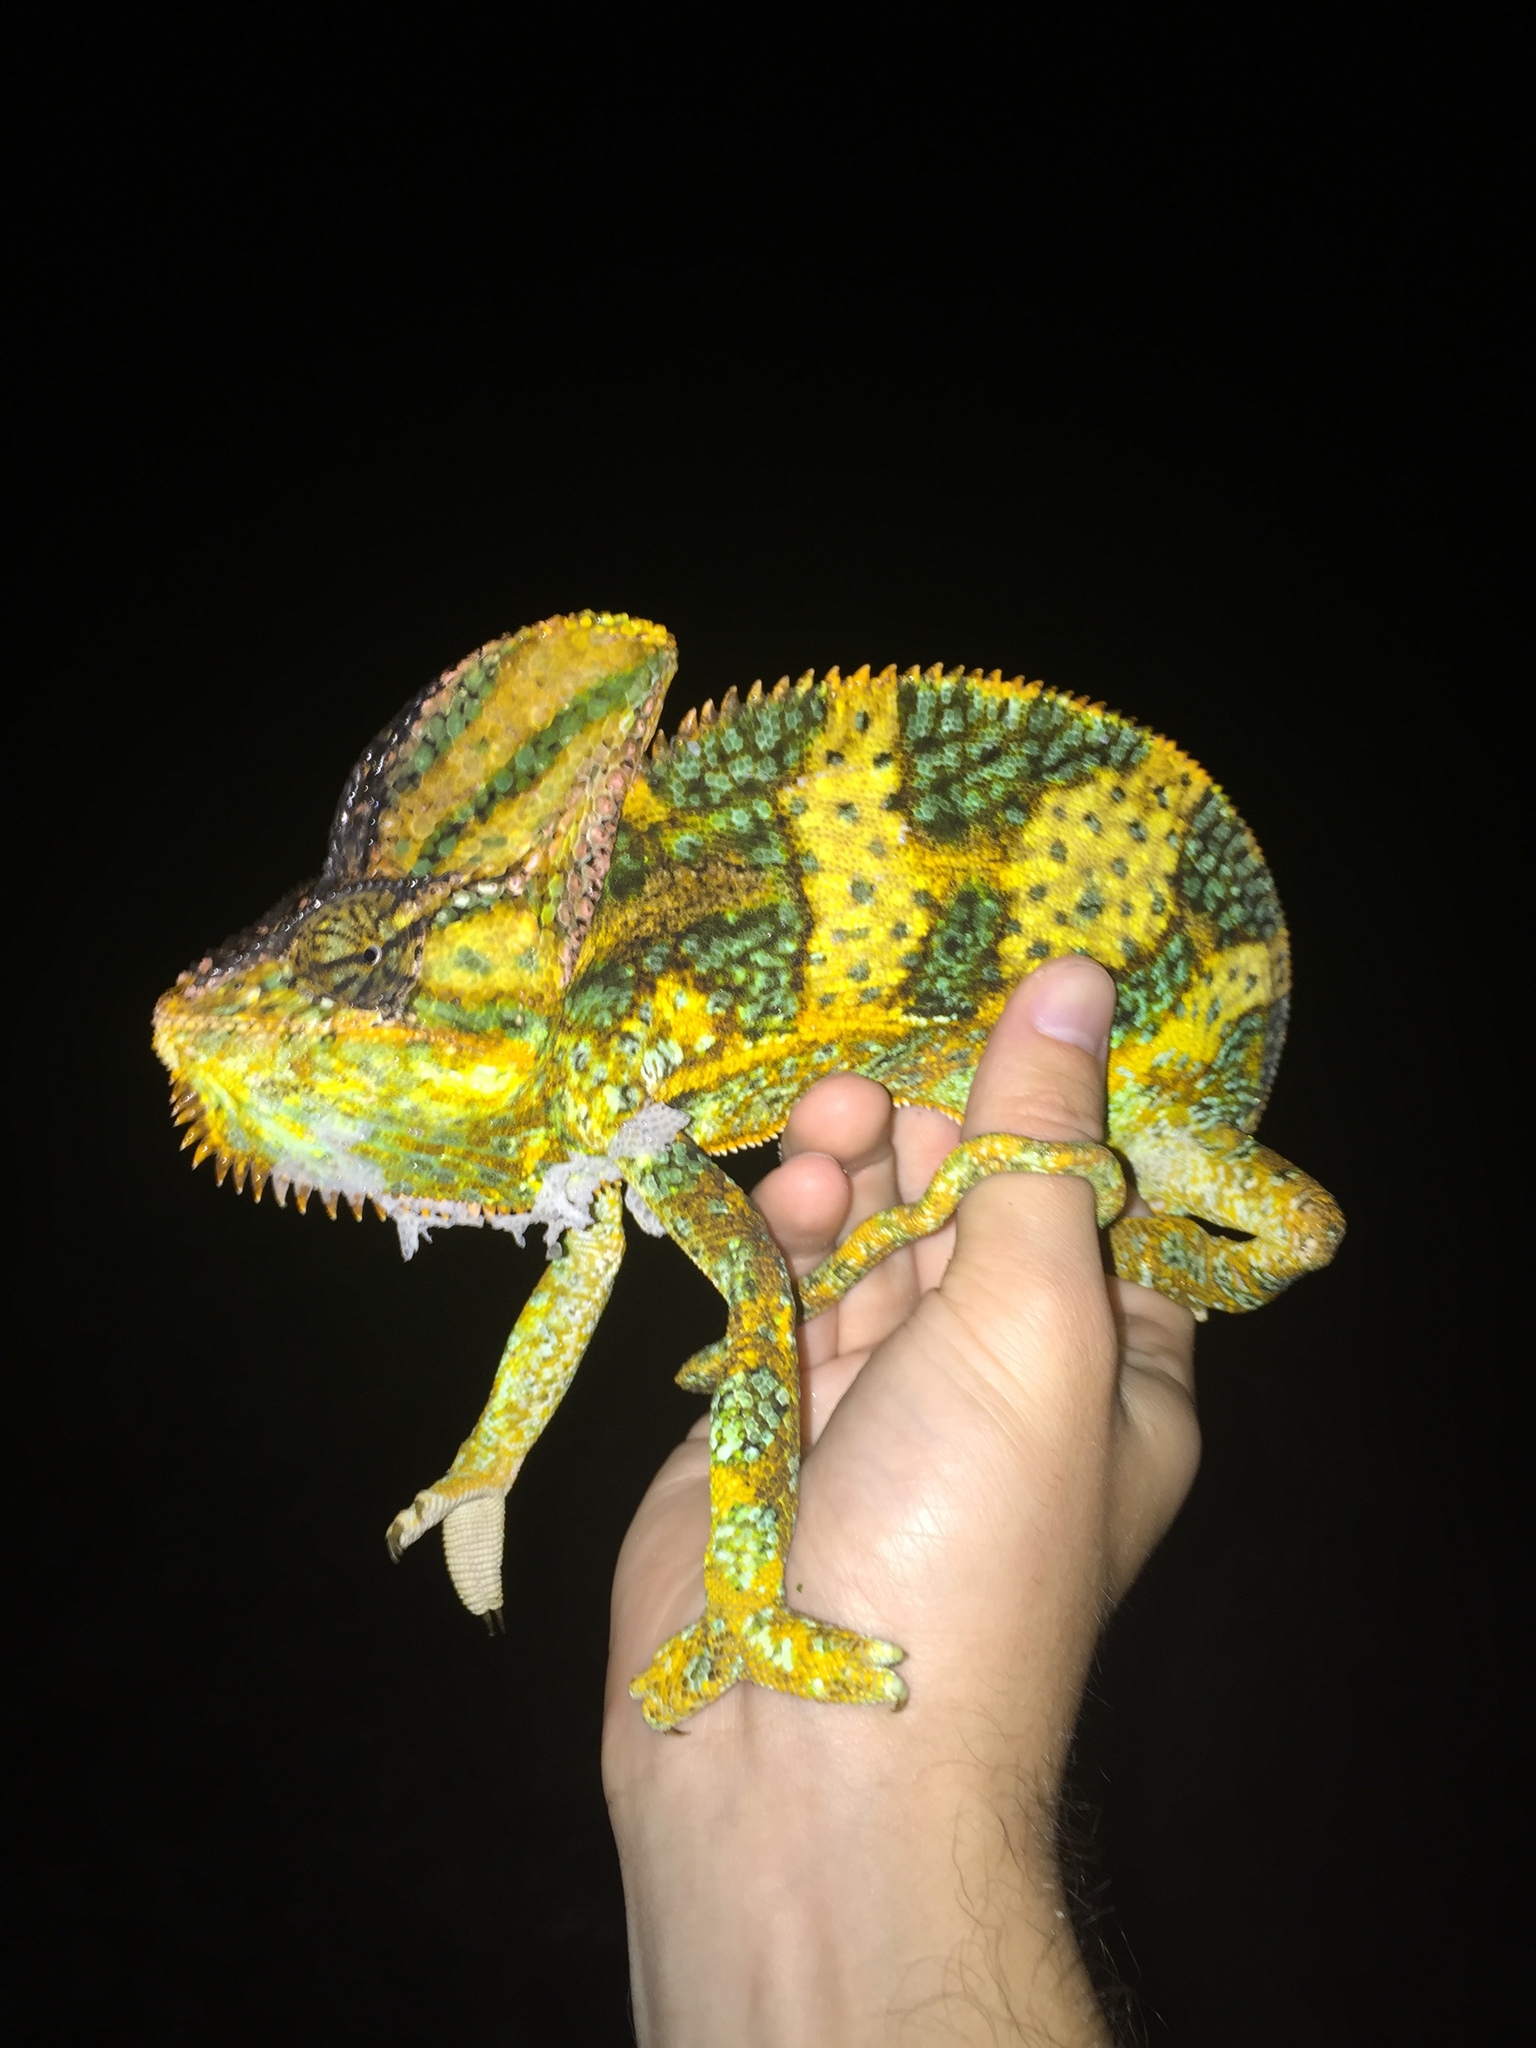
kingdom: Animalia
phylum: Chordata
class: Squamata
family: Chamaeleonidae
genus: Chamaeleo
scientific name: Chamaeleo calyptratus
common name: Veiled chameleon
